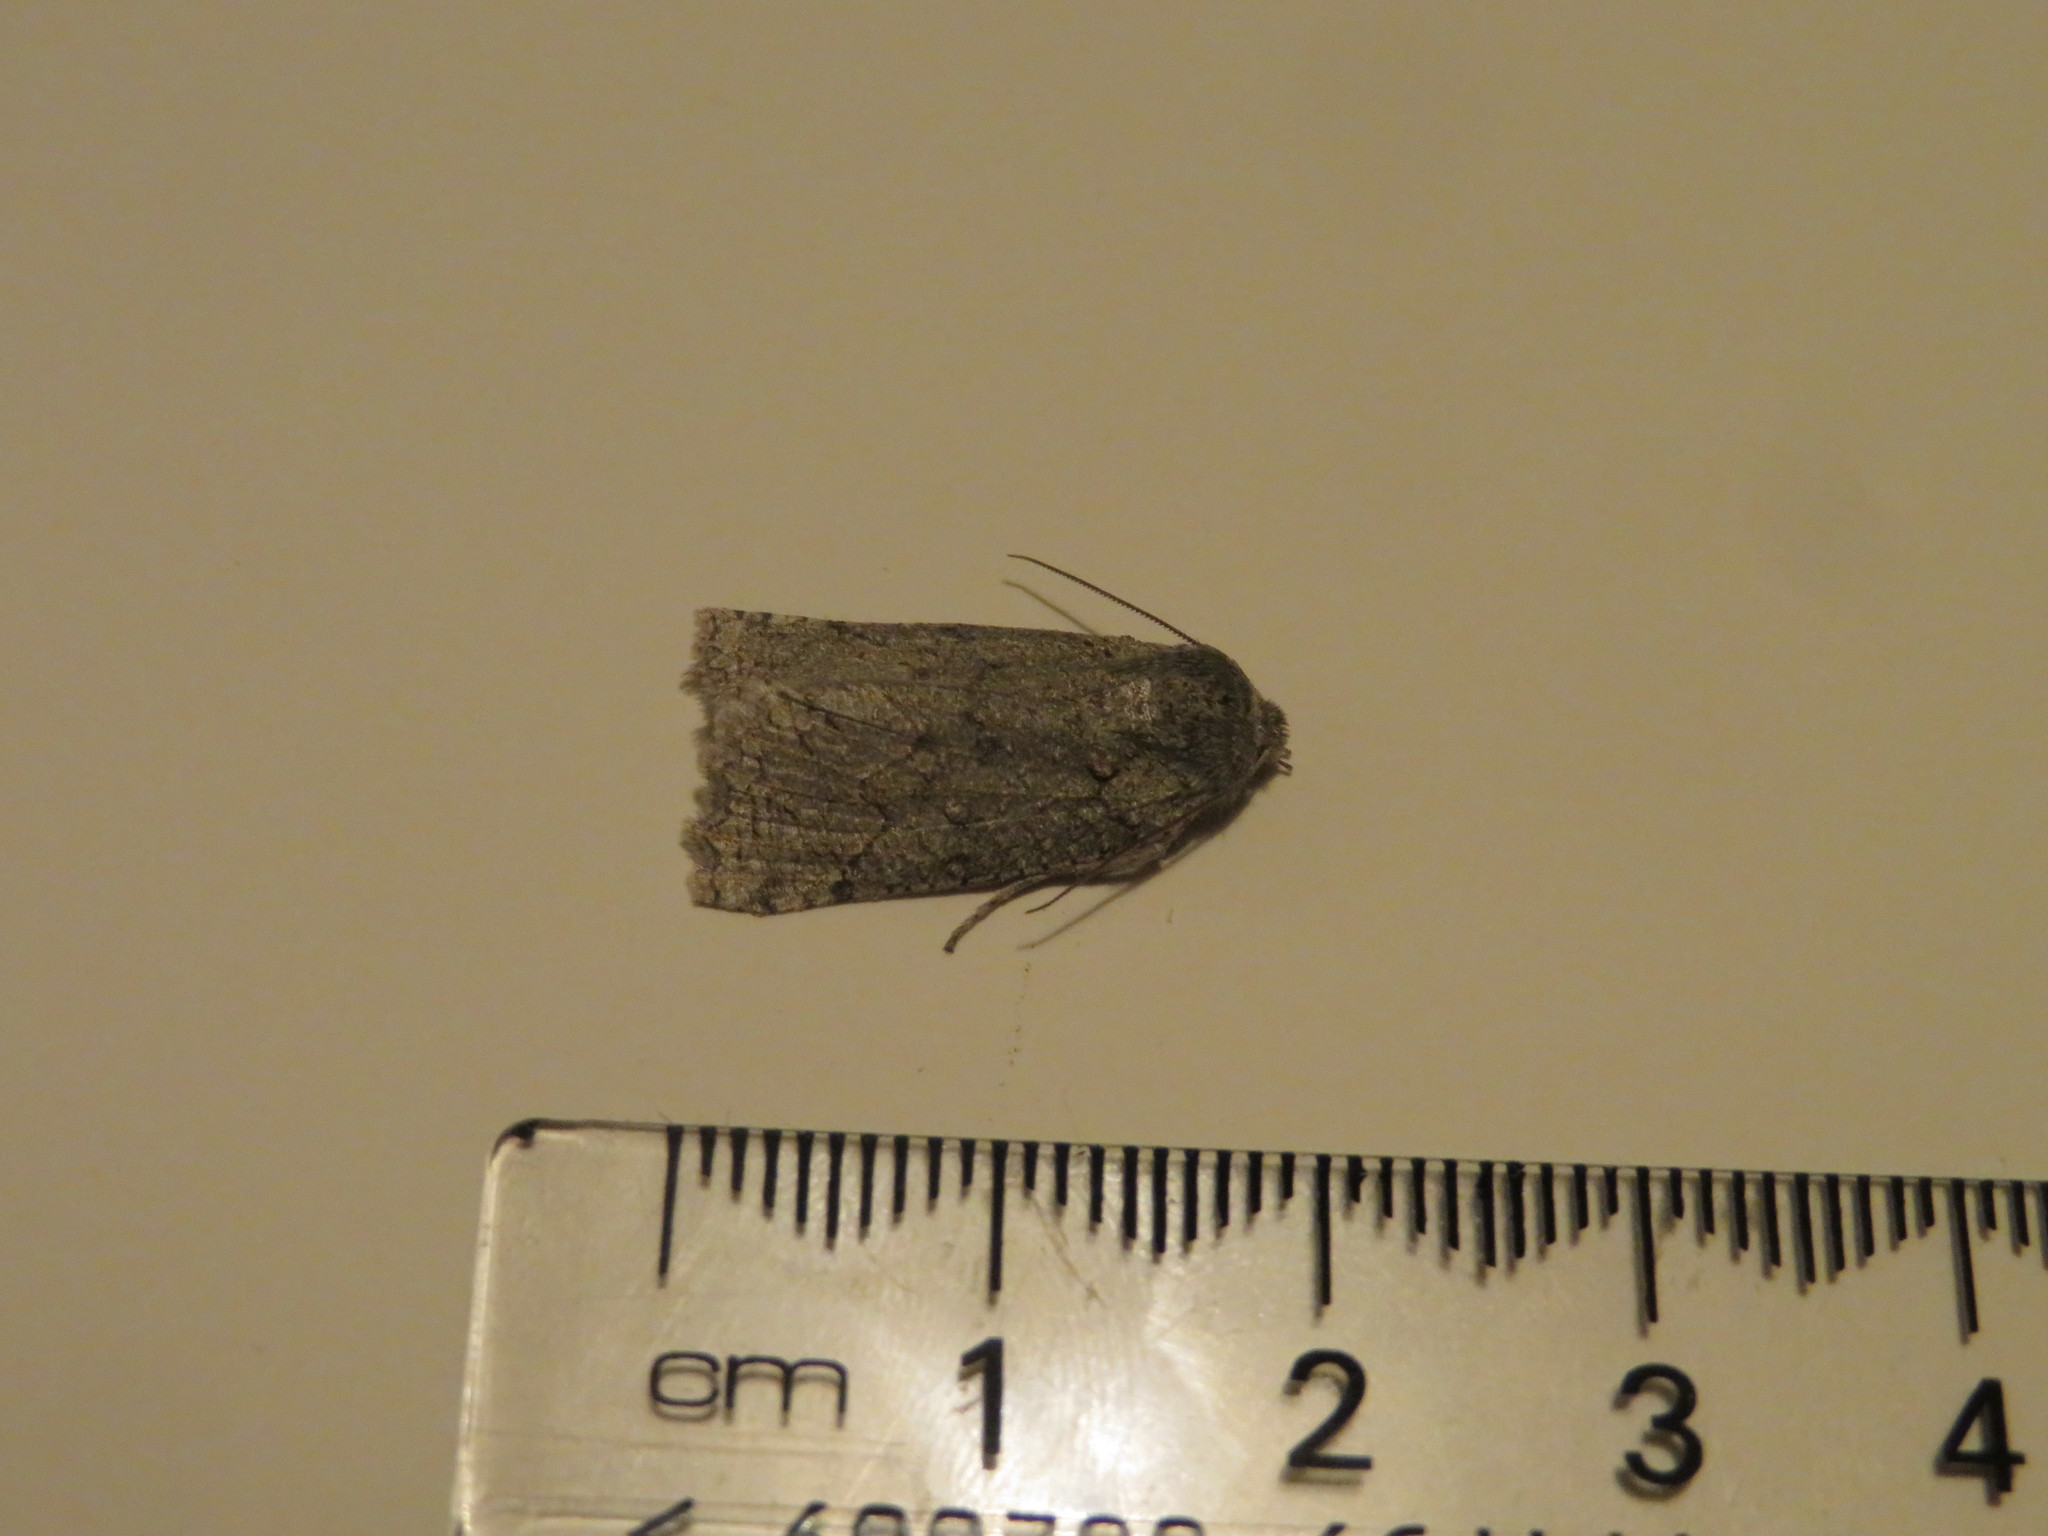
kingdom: Animalia
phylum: Arthropoda
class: Insecta
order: Lepidoptera
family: Geometridae
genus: Declana
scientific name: Declana floccosa
